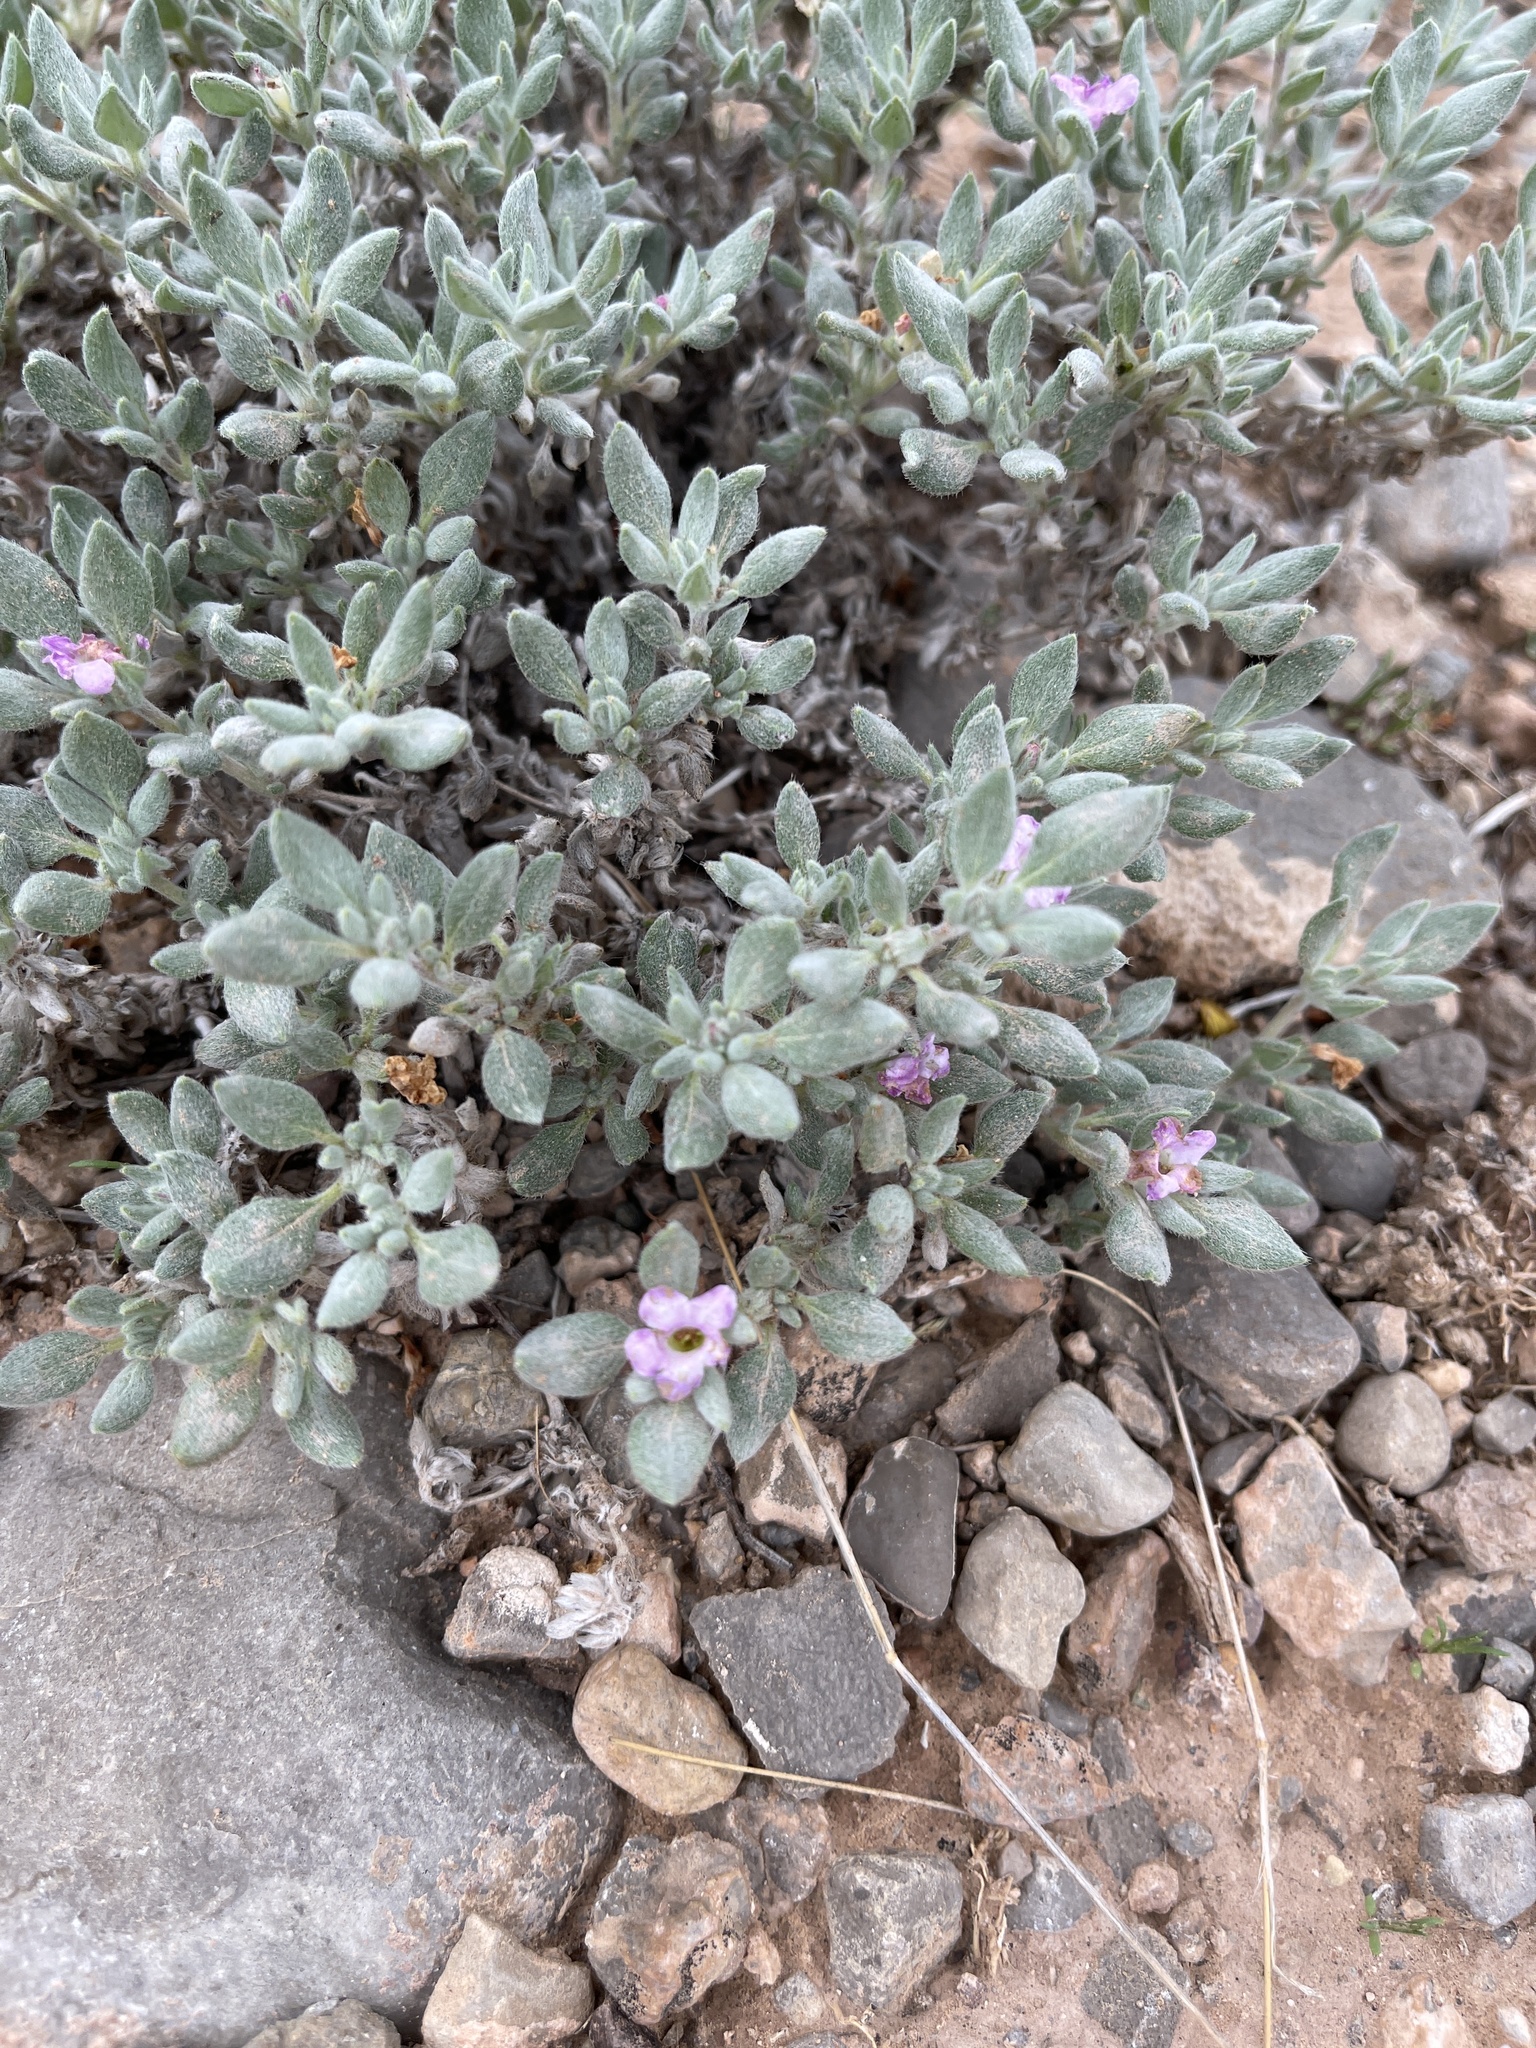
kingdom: Plantae
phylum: Tracheophyta
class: Magnoliopsida
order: Boraginales
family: Ehretiaceae
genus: Tiquilia
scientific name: Tiquilia canescens
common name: Hairy tiquilia
